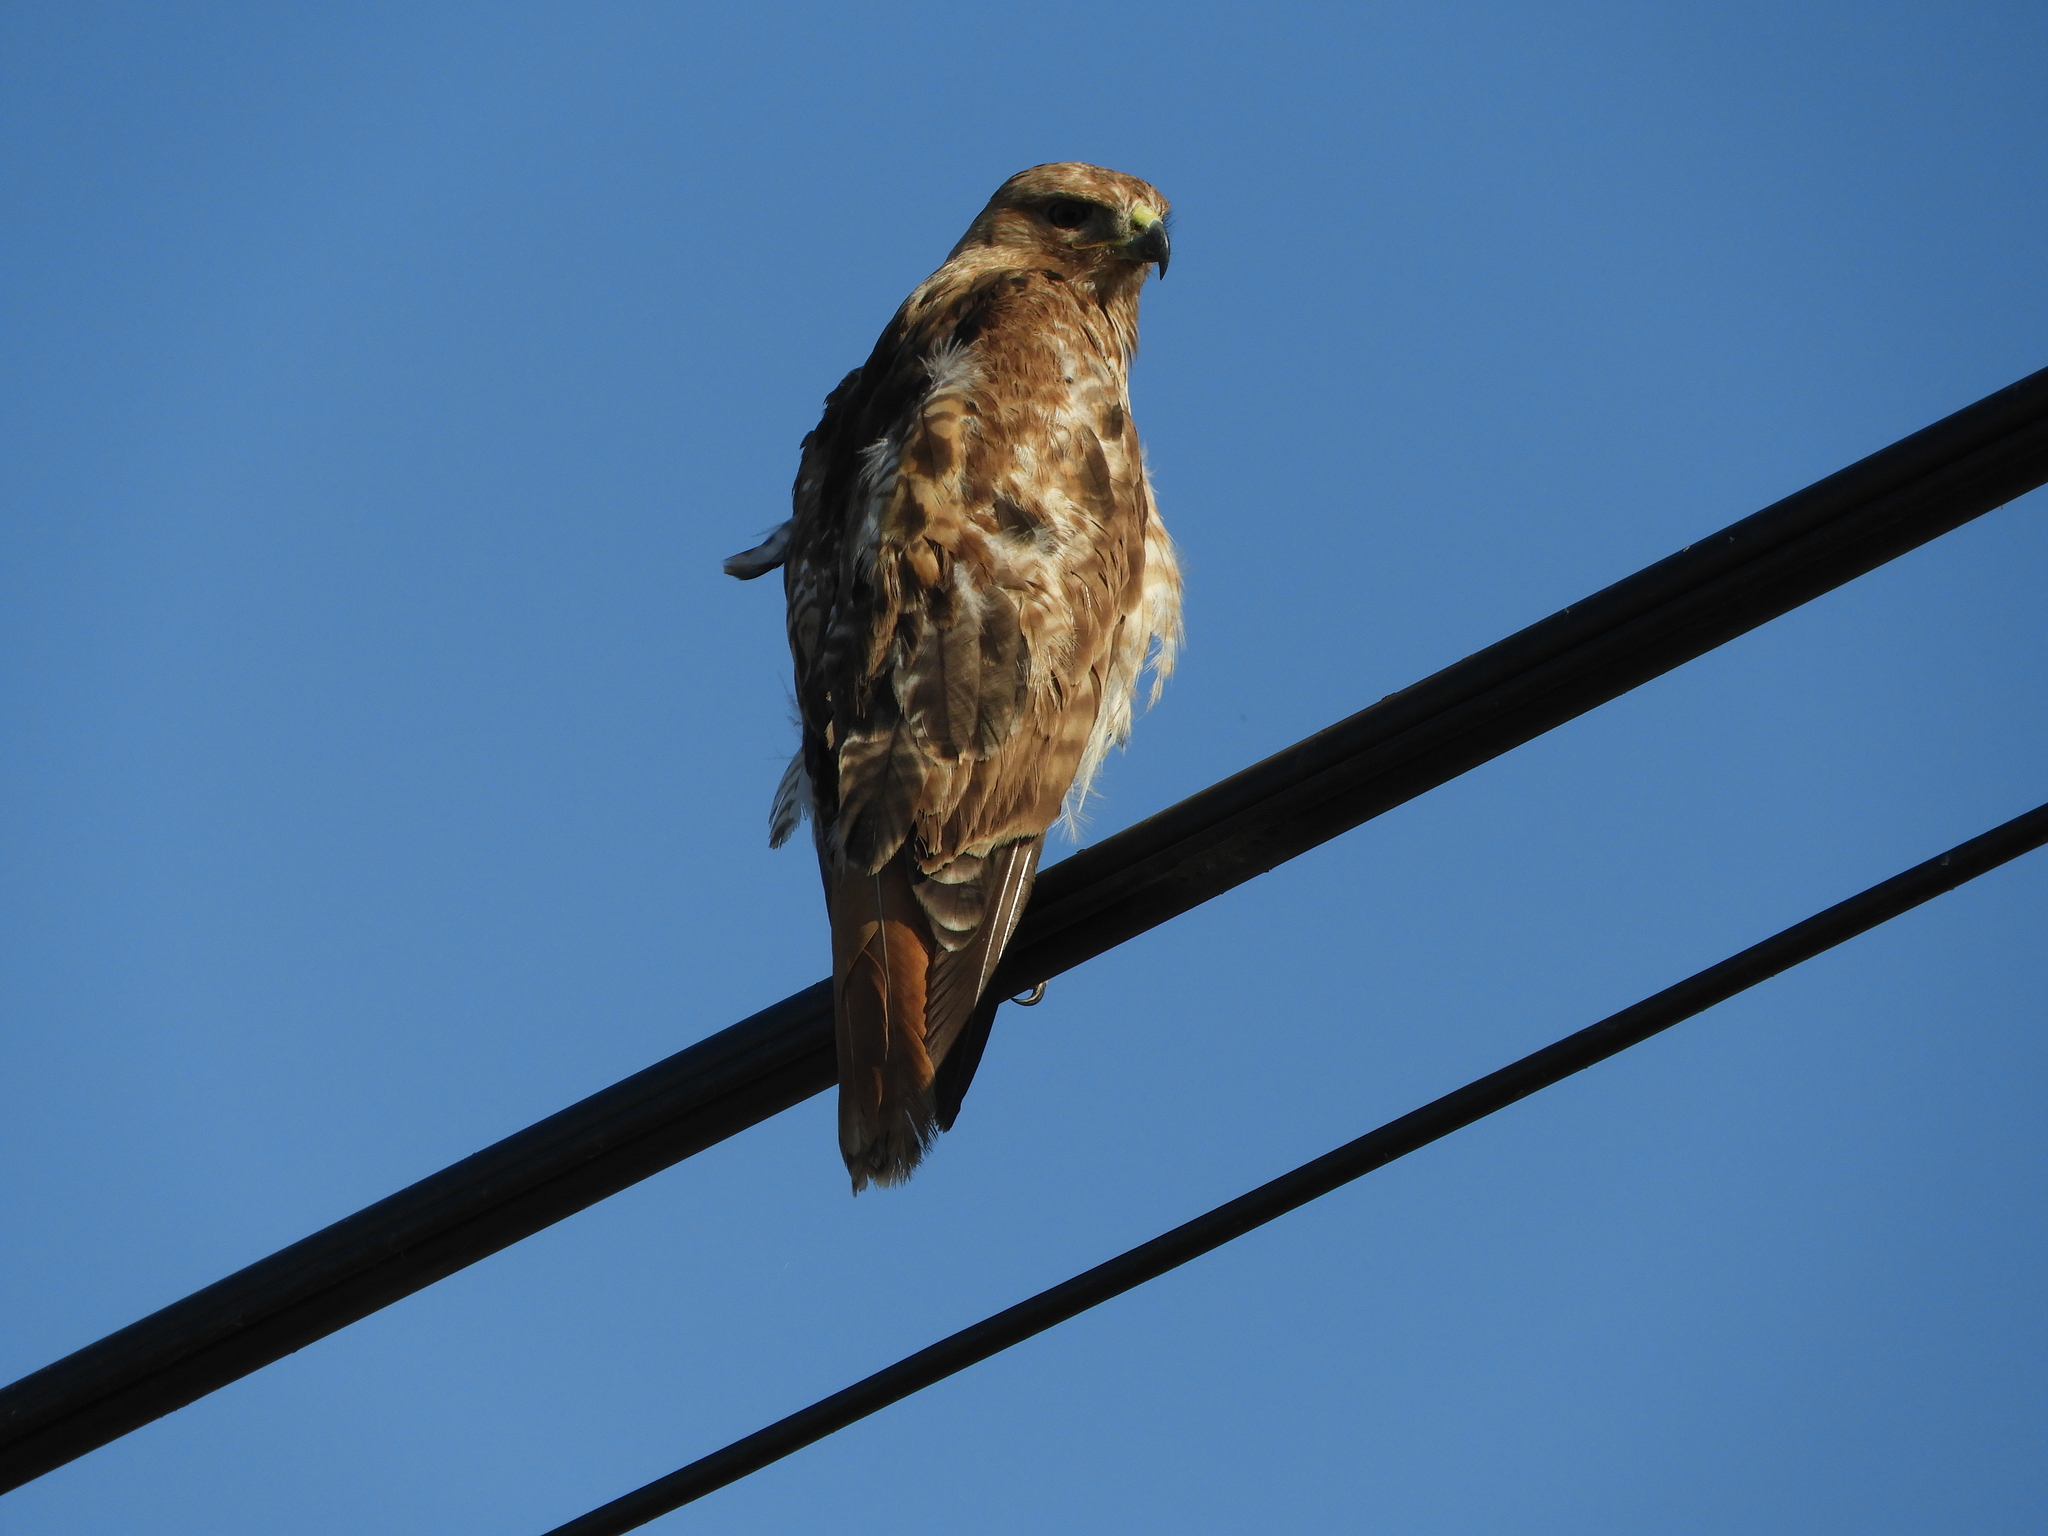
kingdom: Animalia
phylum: Chordata
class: Aves
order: Accipitriformes
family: Accipitridae
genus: Buteo
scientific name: Buteo jamaicensis
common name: Red-tailed hawk
